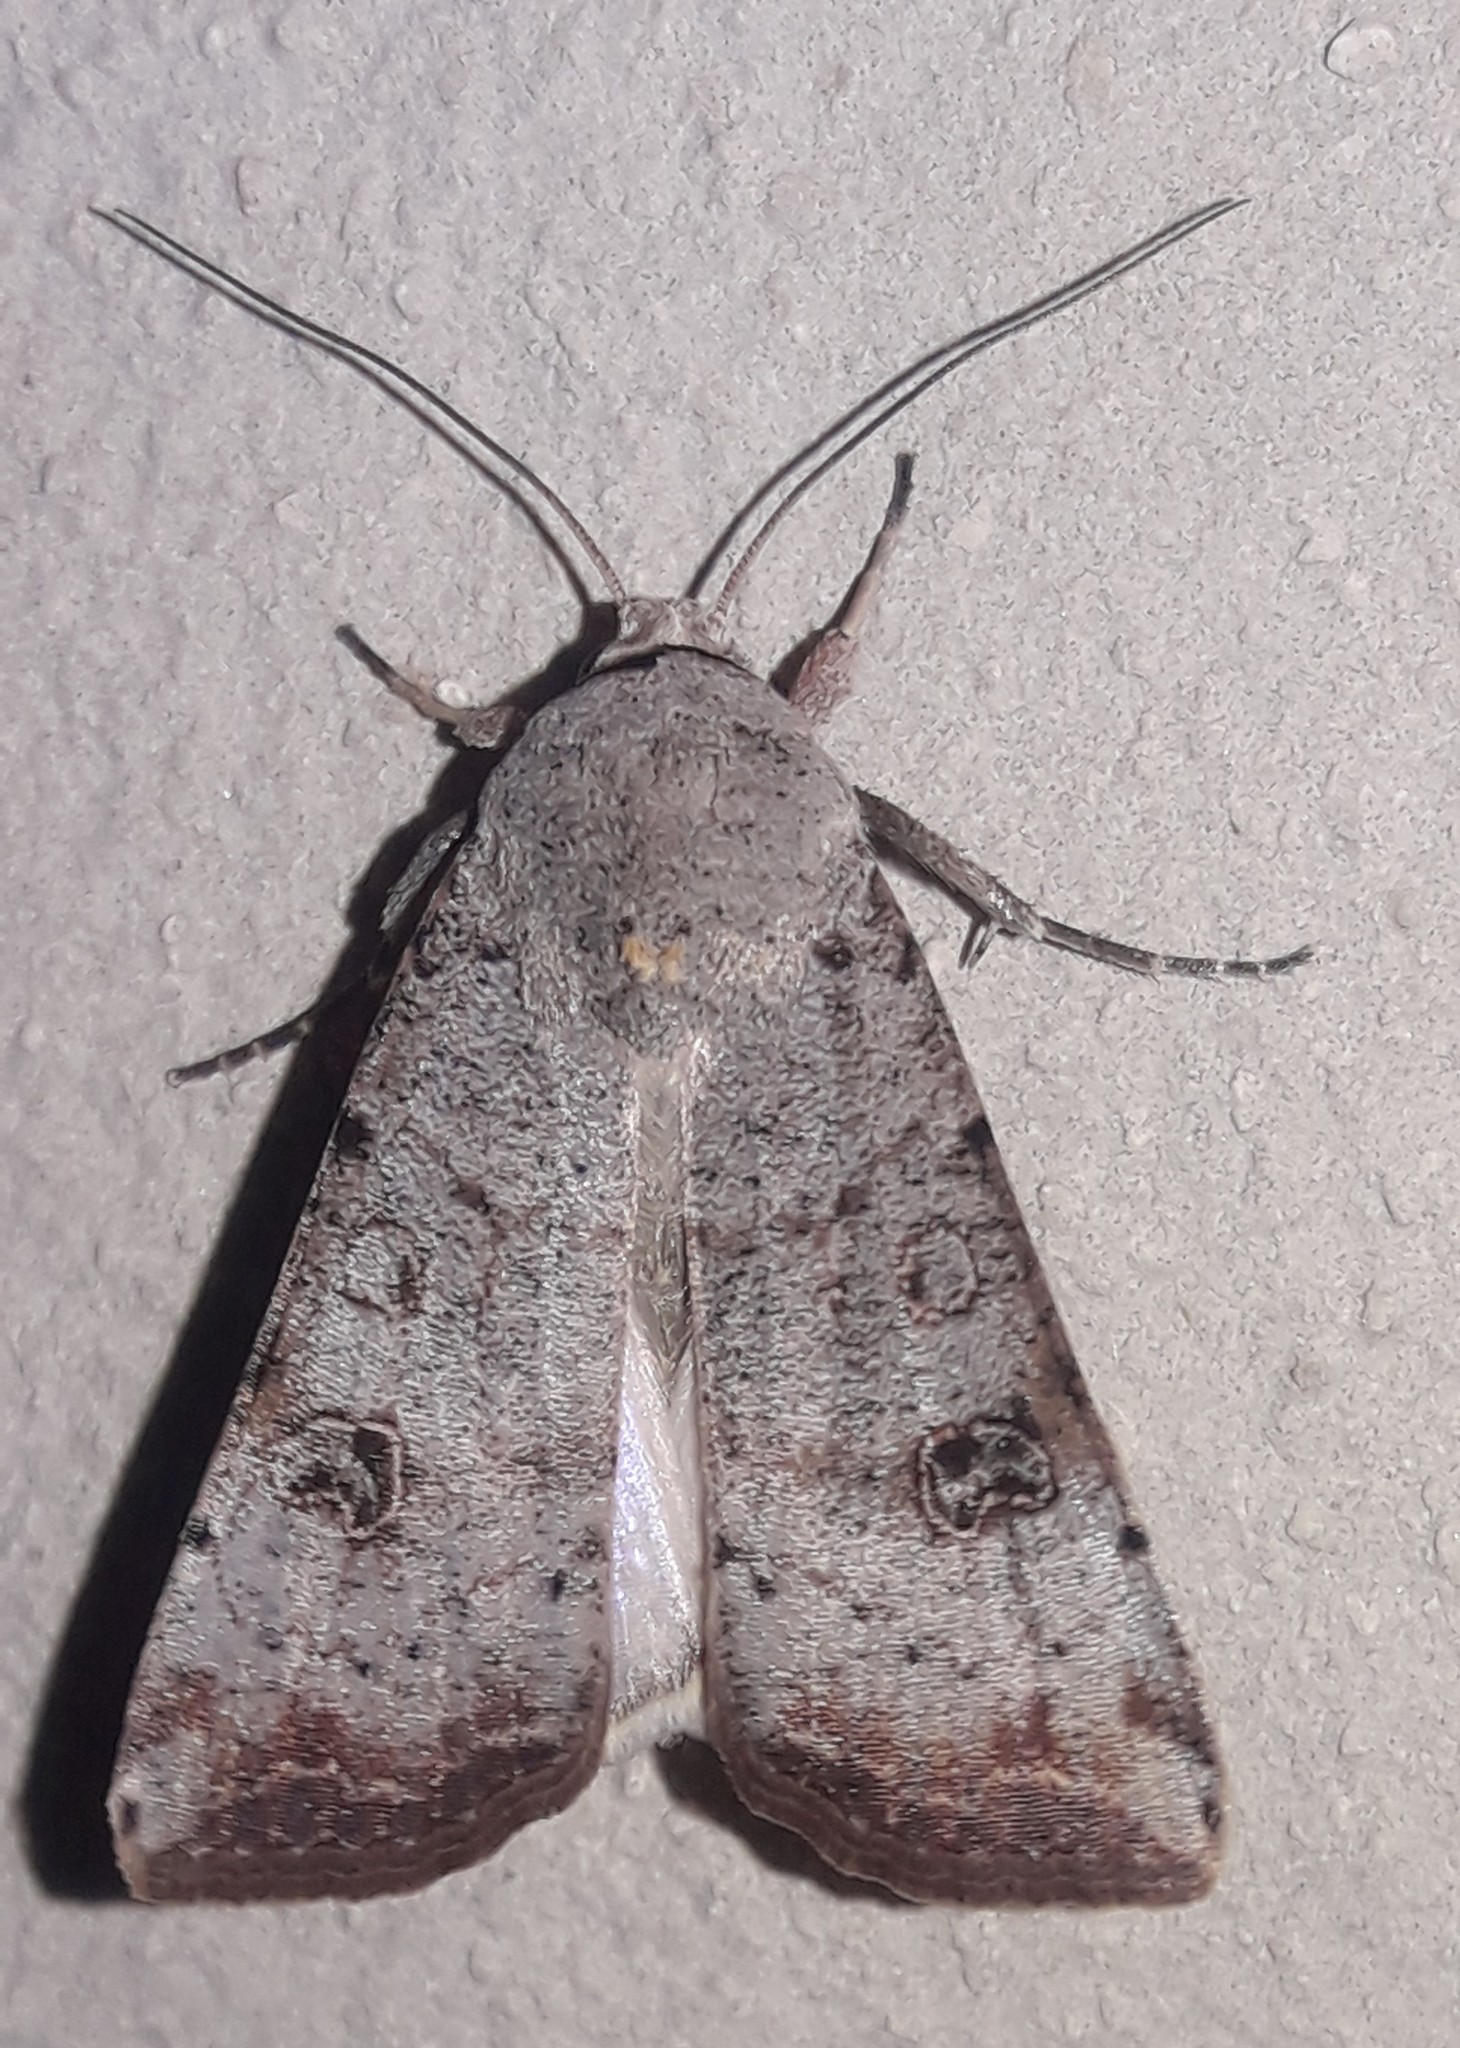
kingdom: Animalia
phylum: Arthropoda
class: Insecta
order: Lepidoptera
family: Noctuidae
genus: Anicla
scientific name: Anicla infecta
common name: Green cutworm
